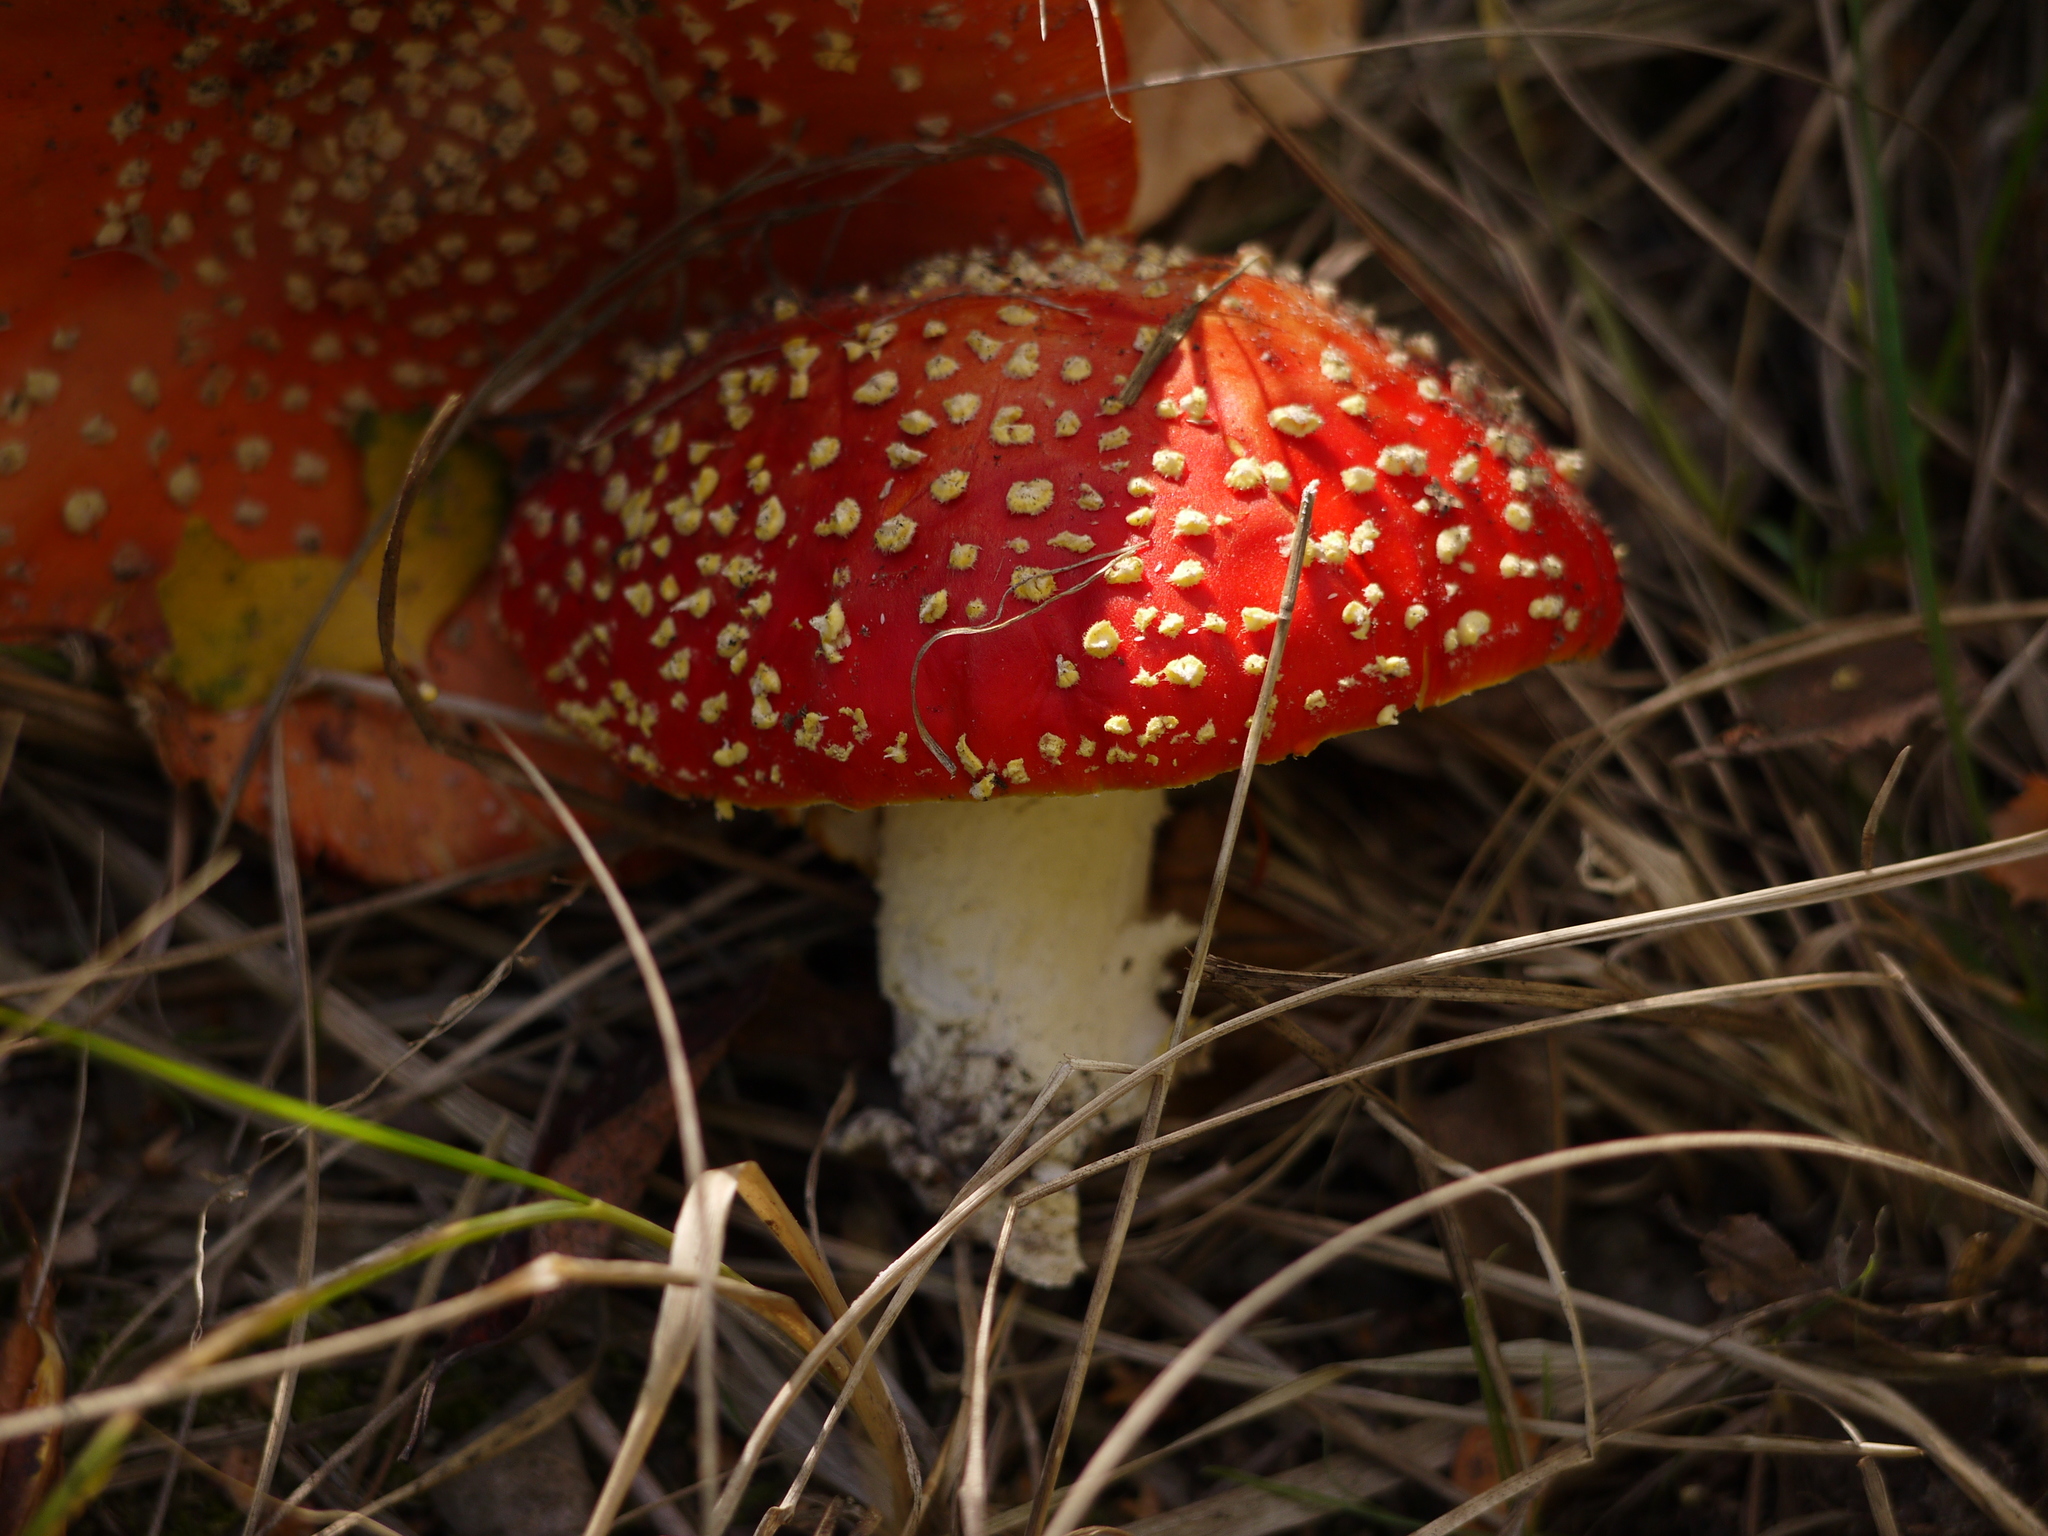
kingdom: Fungi
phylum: Basidiomycota
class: Agaricomycetes
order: Agaricales
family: Amanitaceae
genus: Amanita
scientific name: Amanita muscaria
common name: Fly agaric
